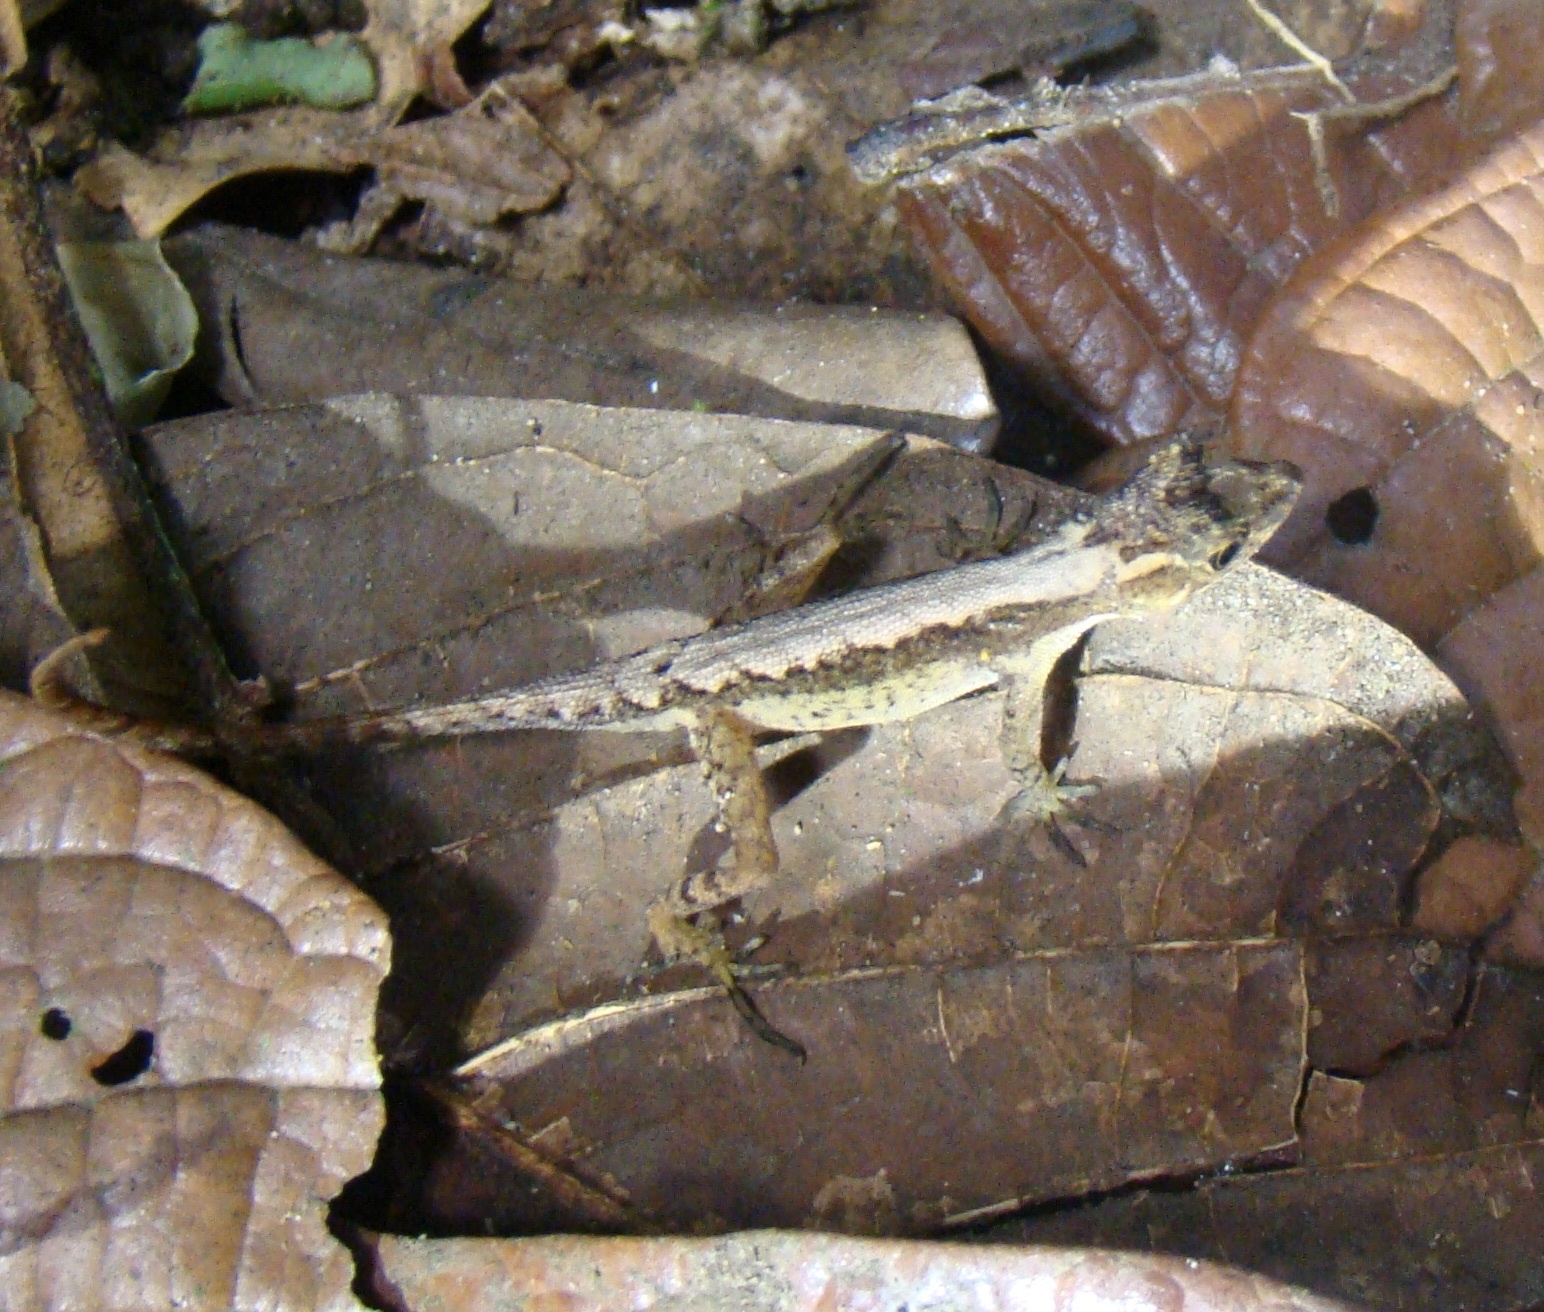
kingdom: Animalia
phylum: Chordata
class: Squamata
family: Dactyloidae
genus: Anolis
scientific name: Anolis humilis
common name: Humble anole
